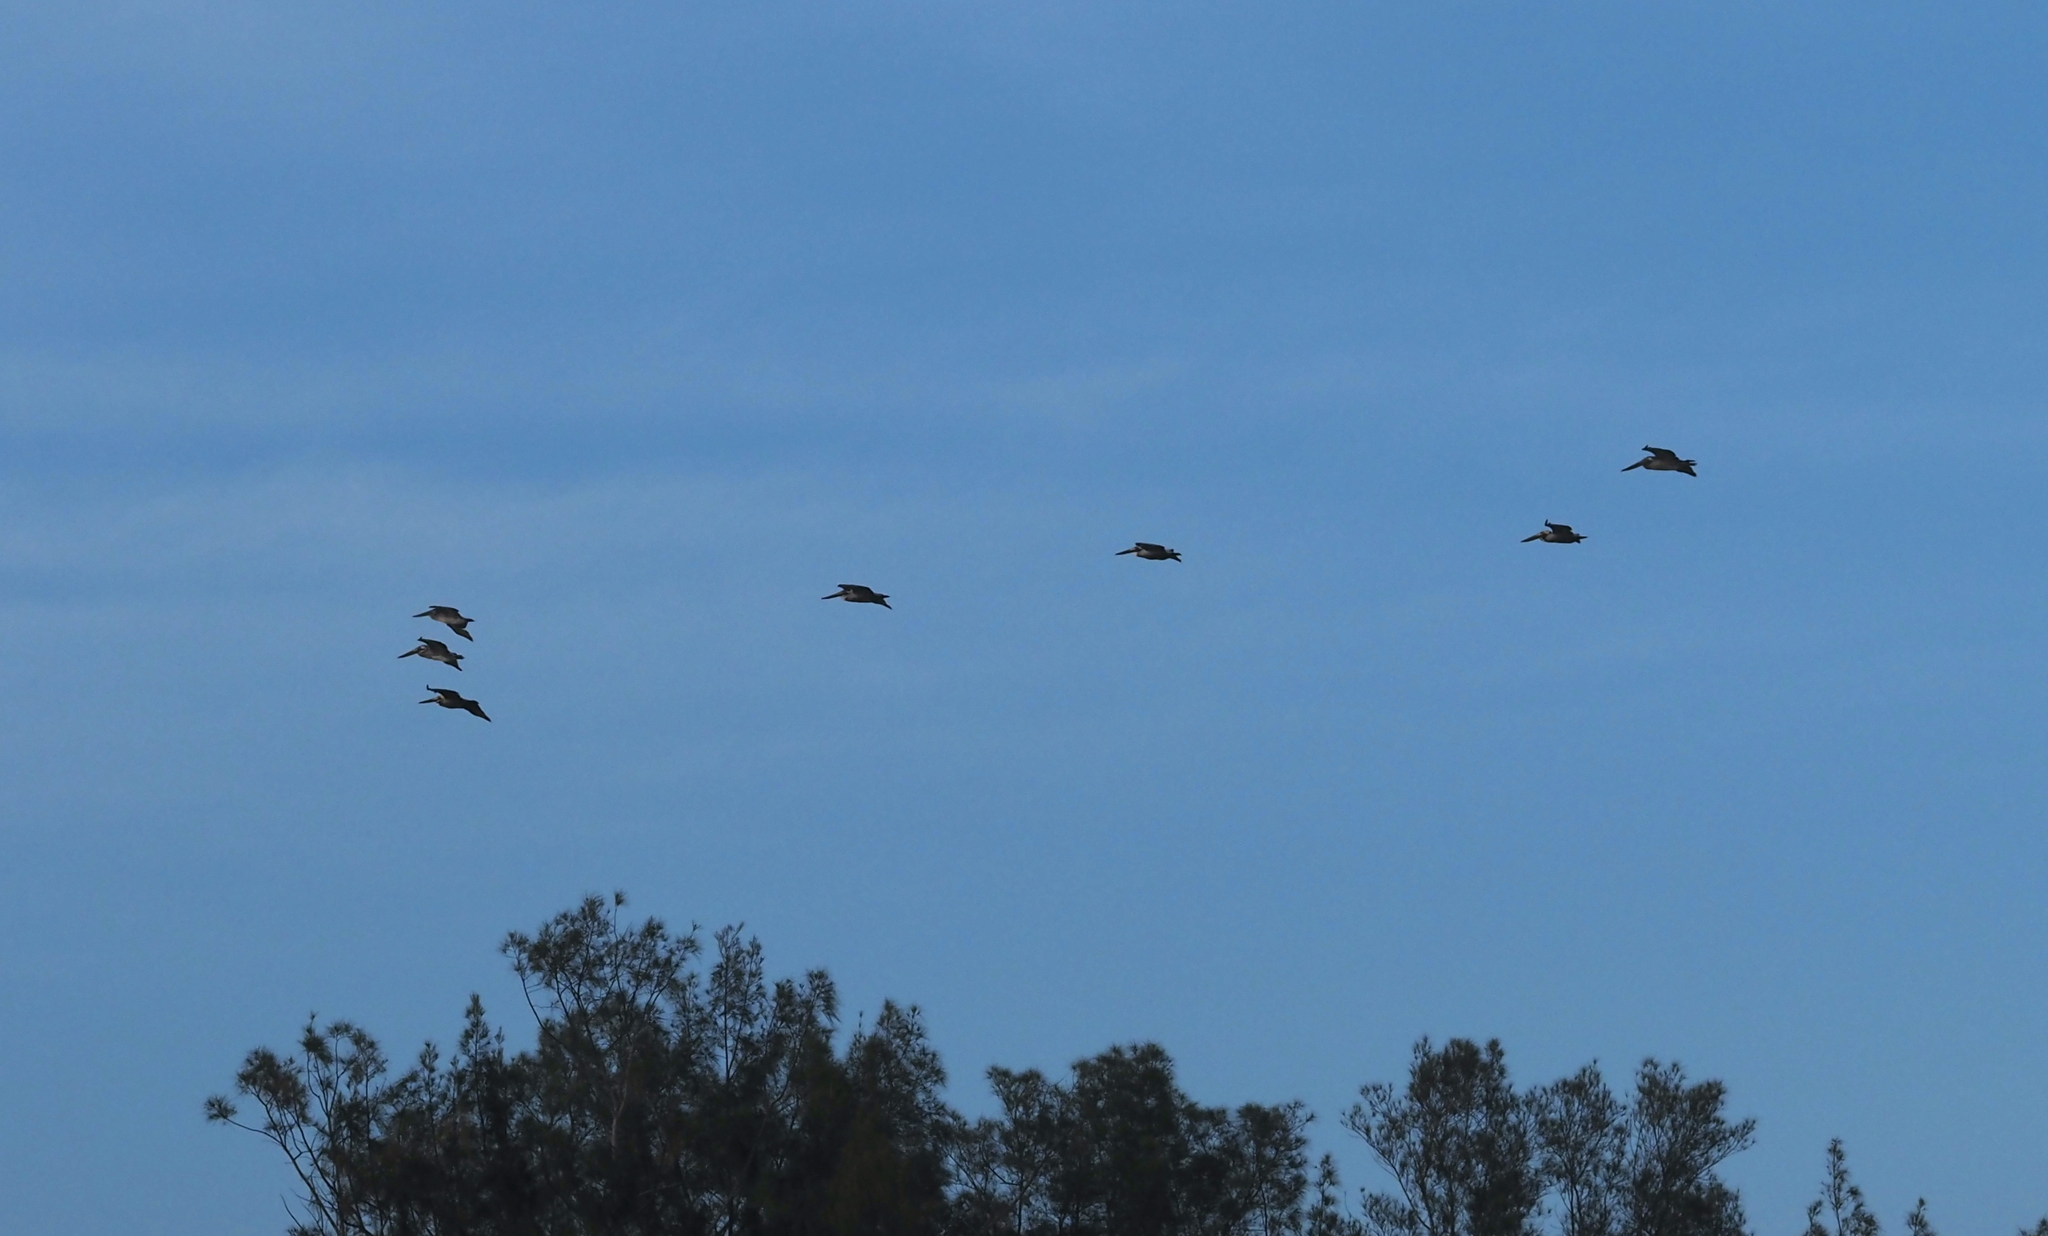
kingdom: Animalia
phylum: Chordata
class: Aves
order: Pelecaniformes
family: Pelecanidae
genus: Pelecanus
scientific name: Pelecanus occidentalis
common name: Brown pelican
